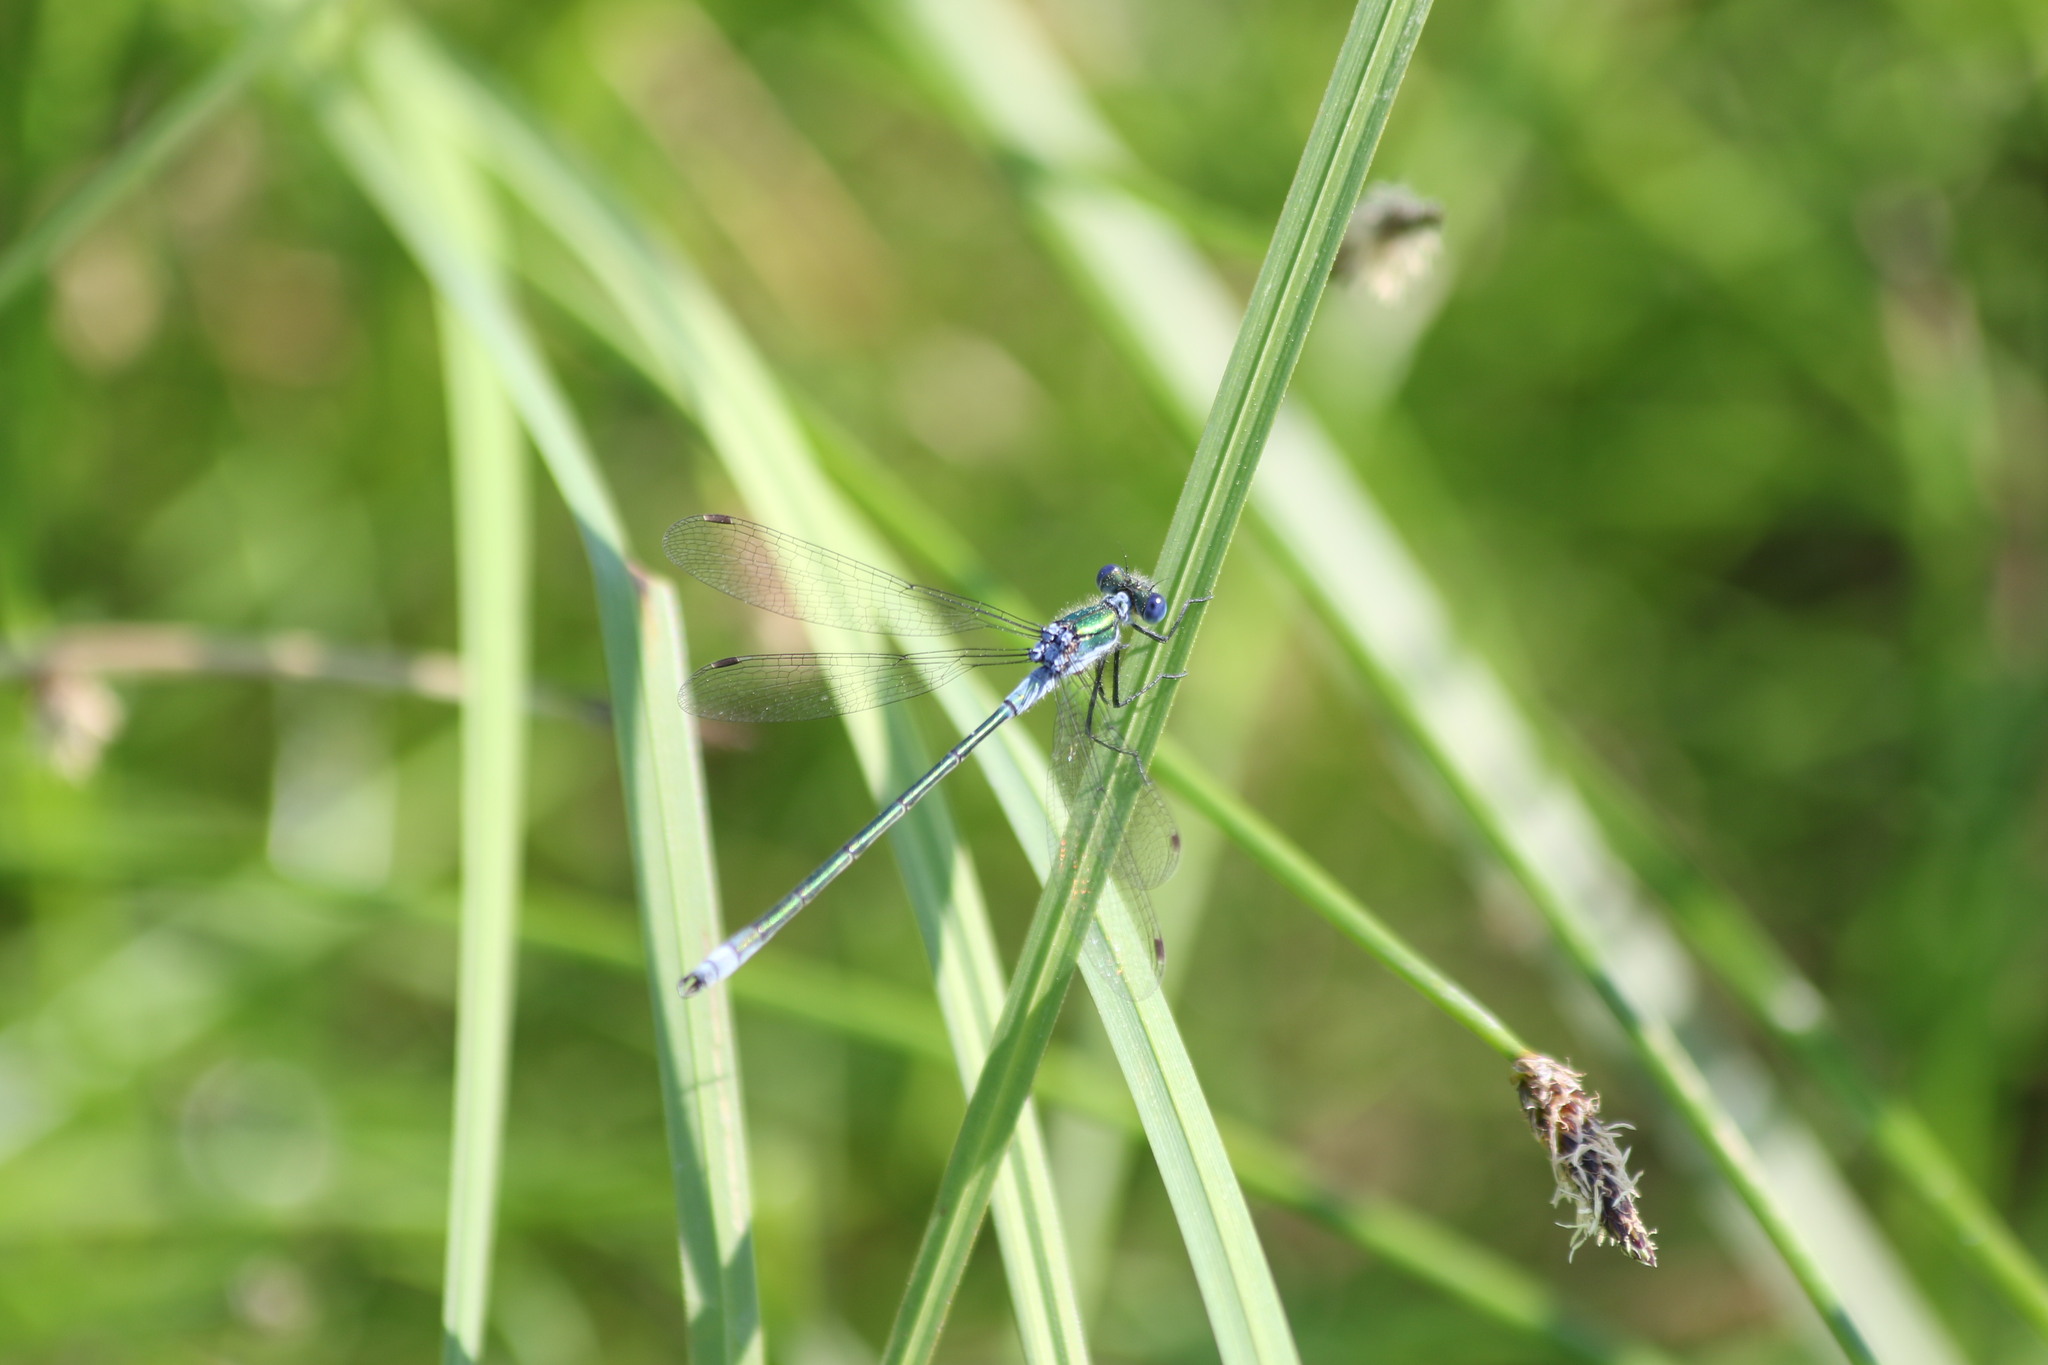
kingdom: Animalia
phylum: Arthropoda
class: Insecta
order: Odonata
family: Lestidae
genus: Lestes
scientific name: Lestes sponsa
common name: Common spreadwing
